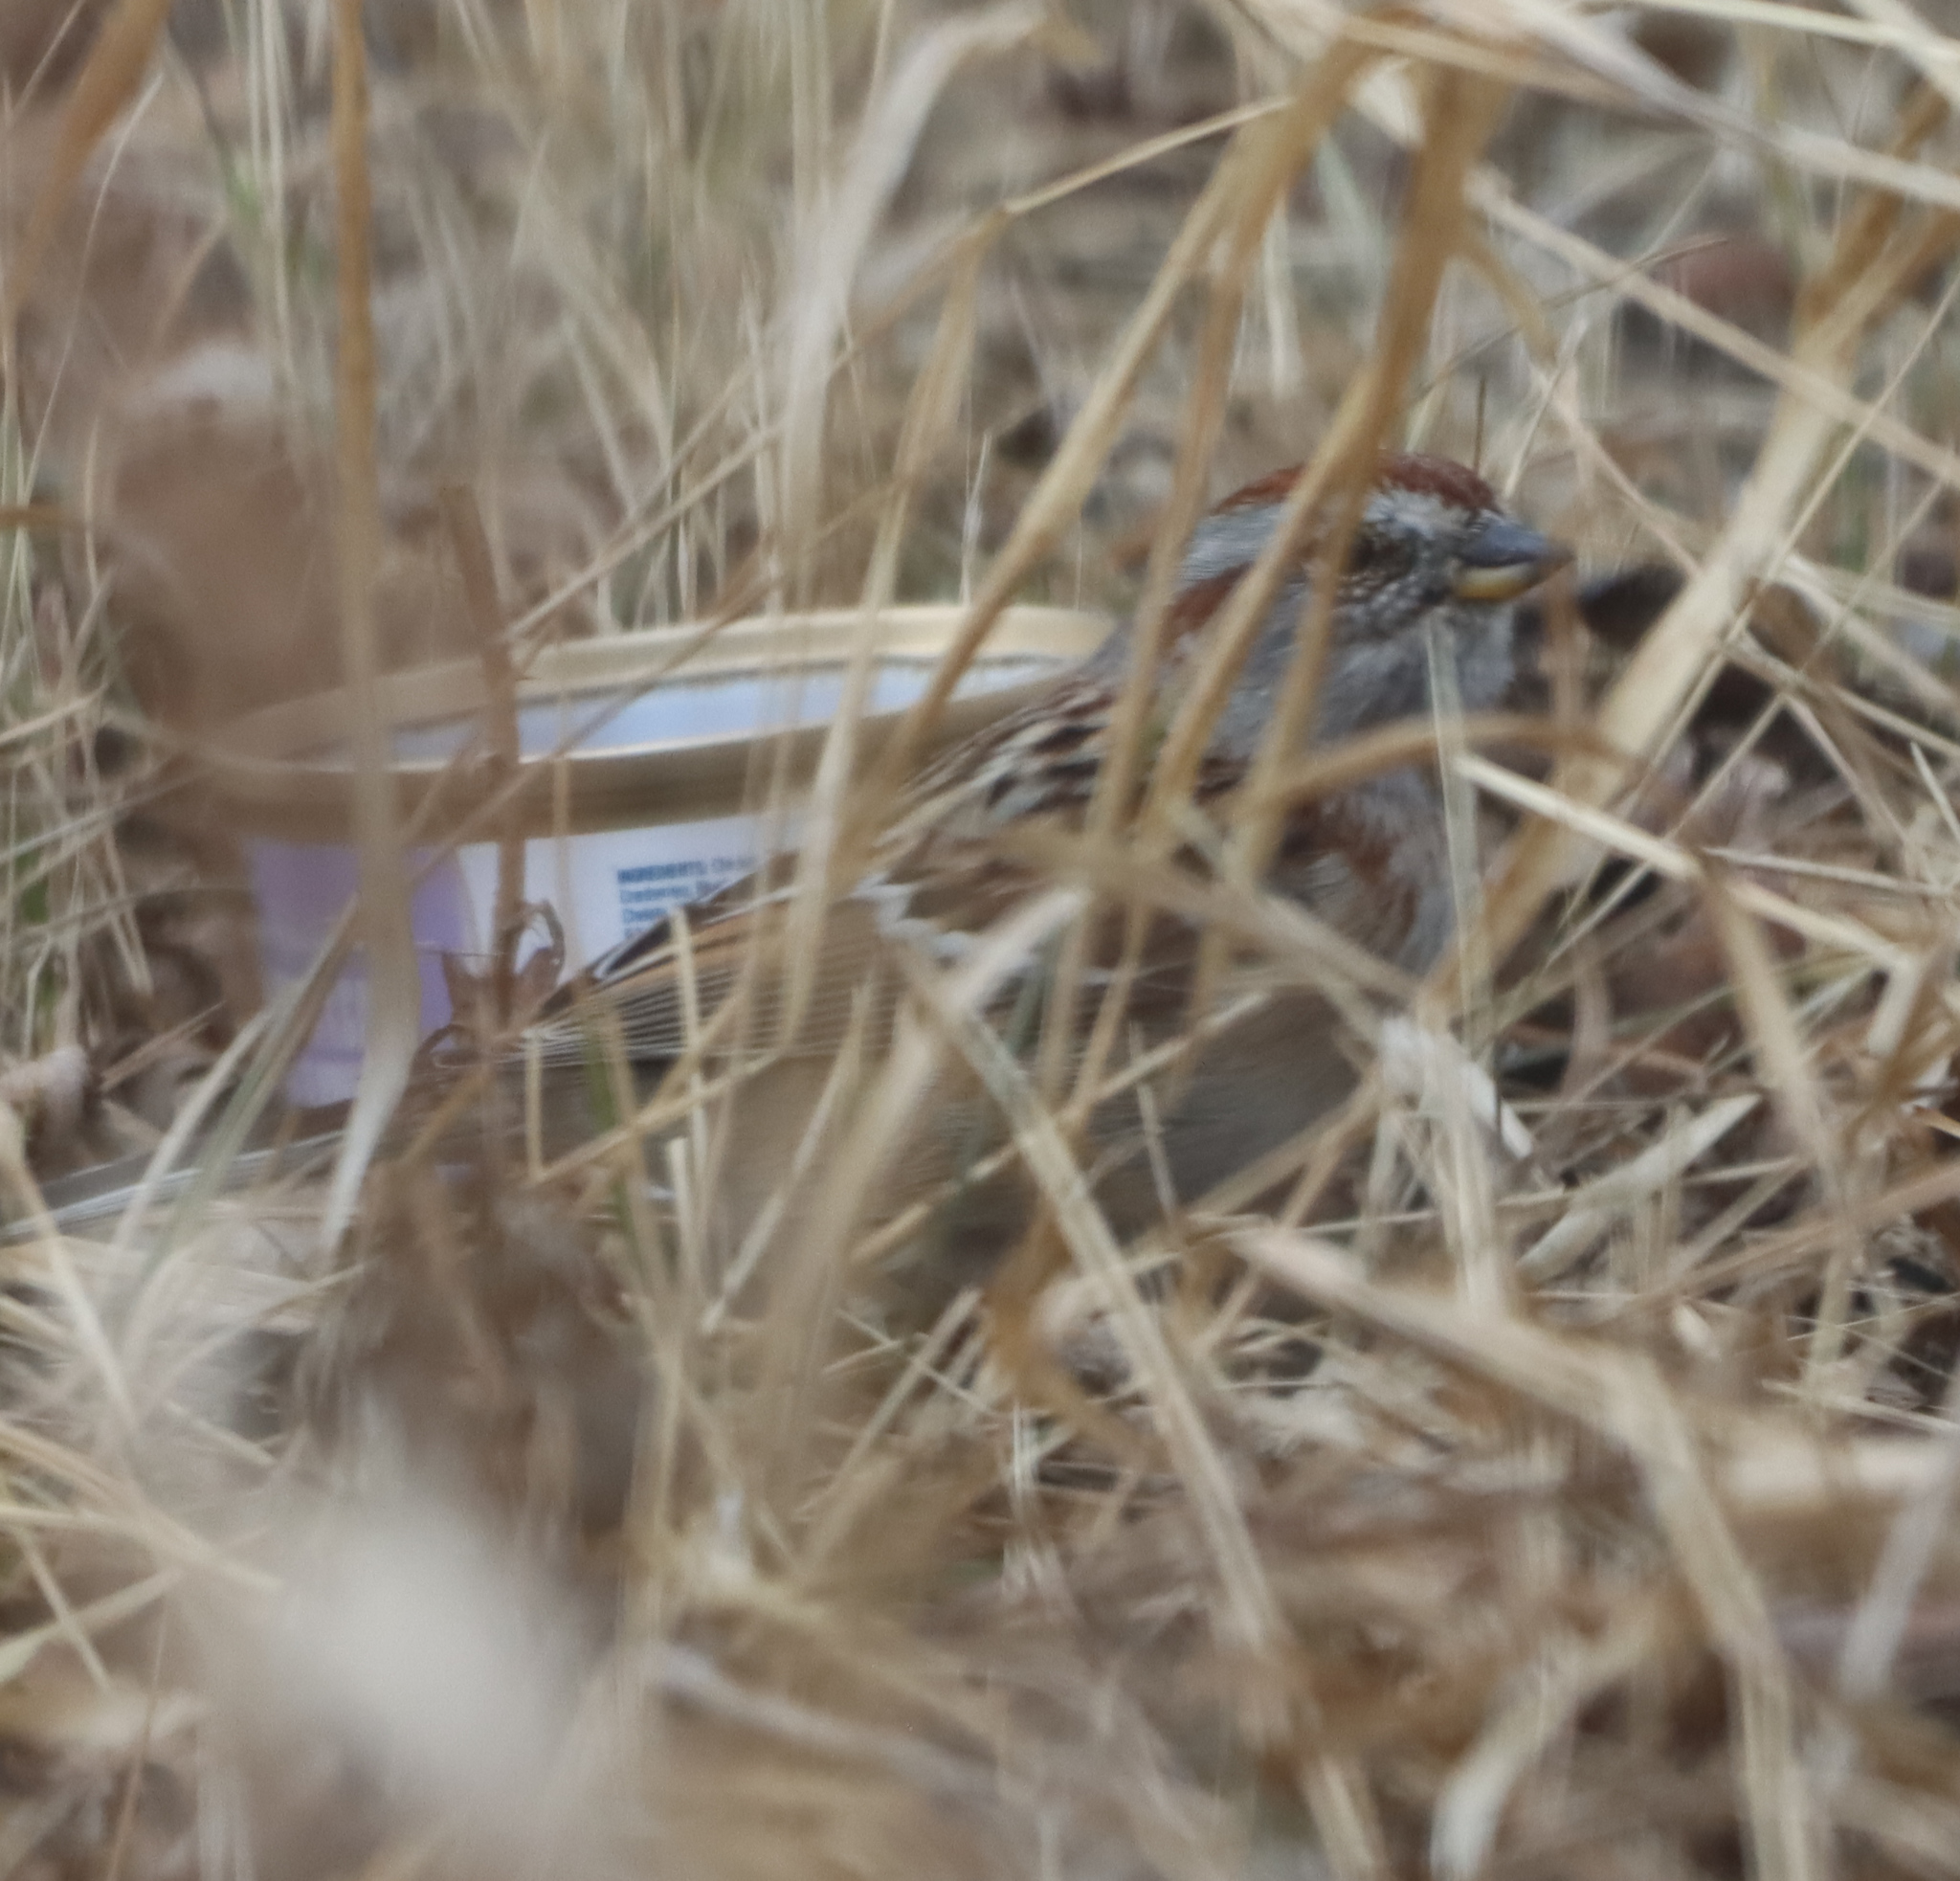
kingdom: Animalia
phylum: Chordata
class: Aves
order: Passeriformes
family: Passerellidae
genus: Spizelloides
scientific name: Spizelloides arborea
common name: American tree sparrow
